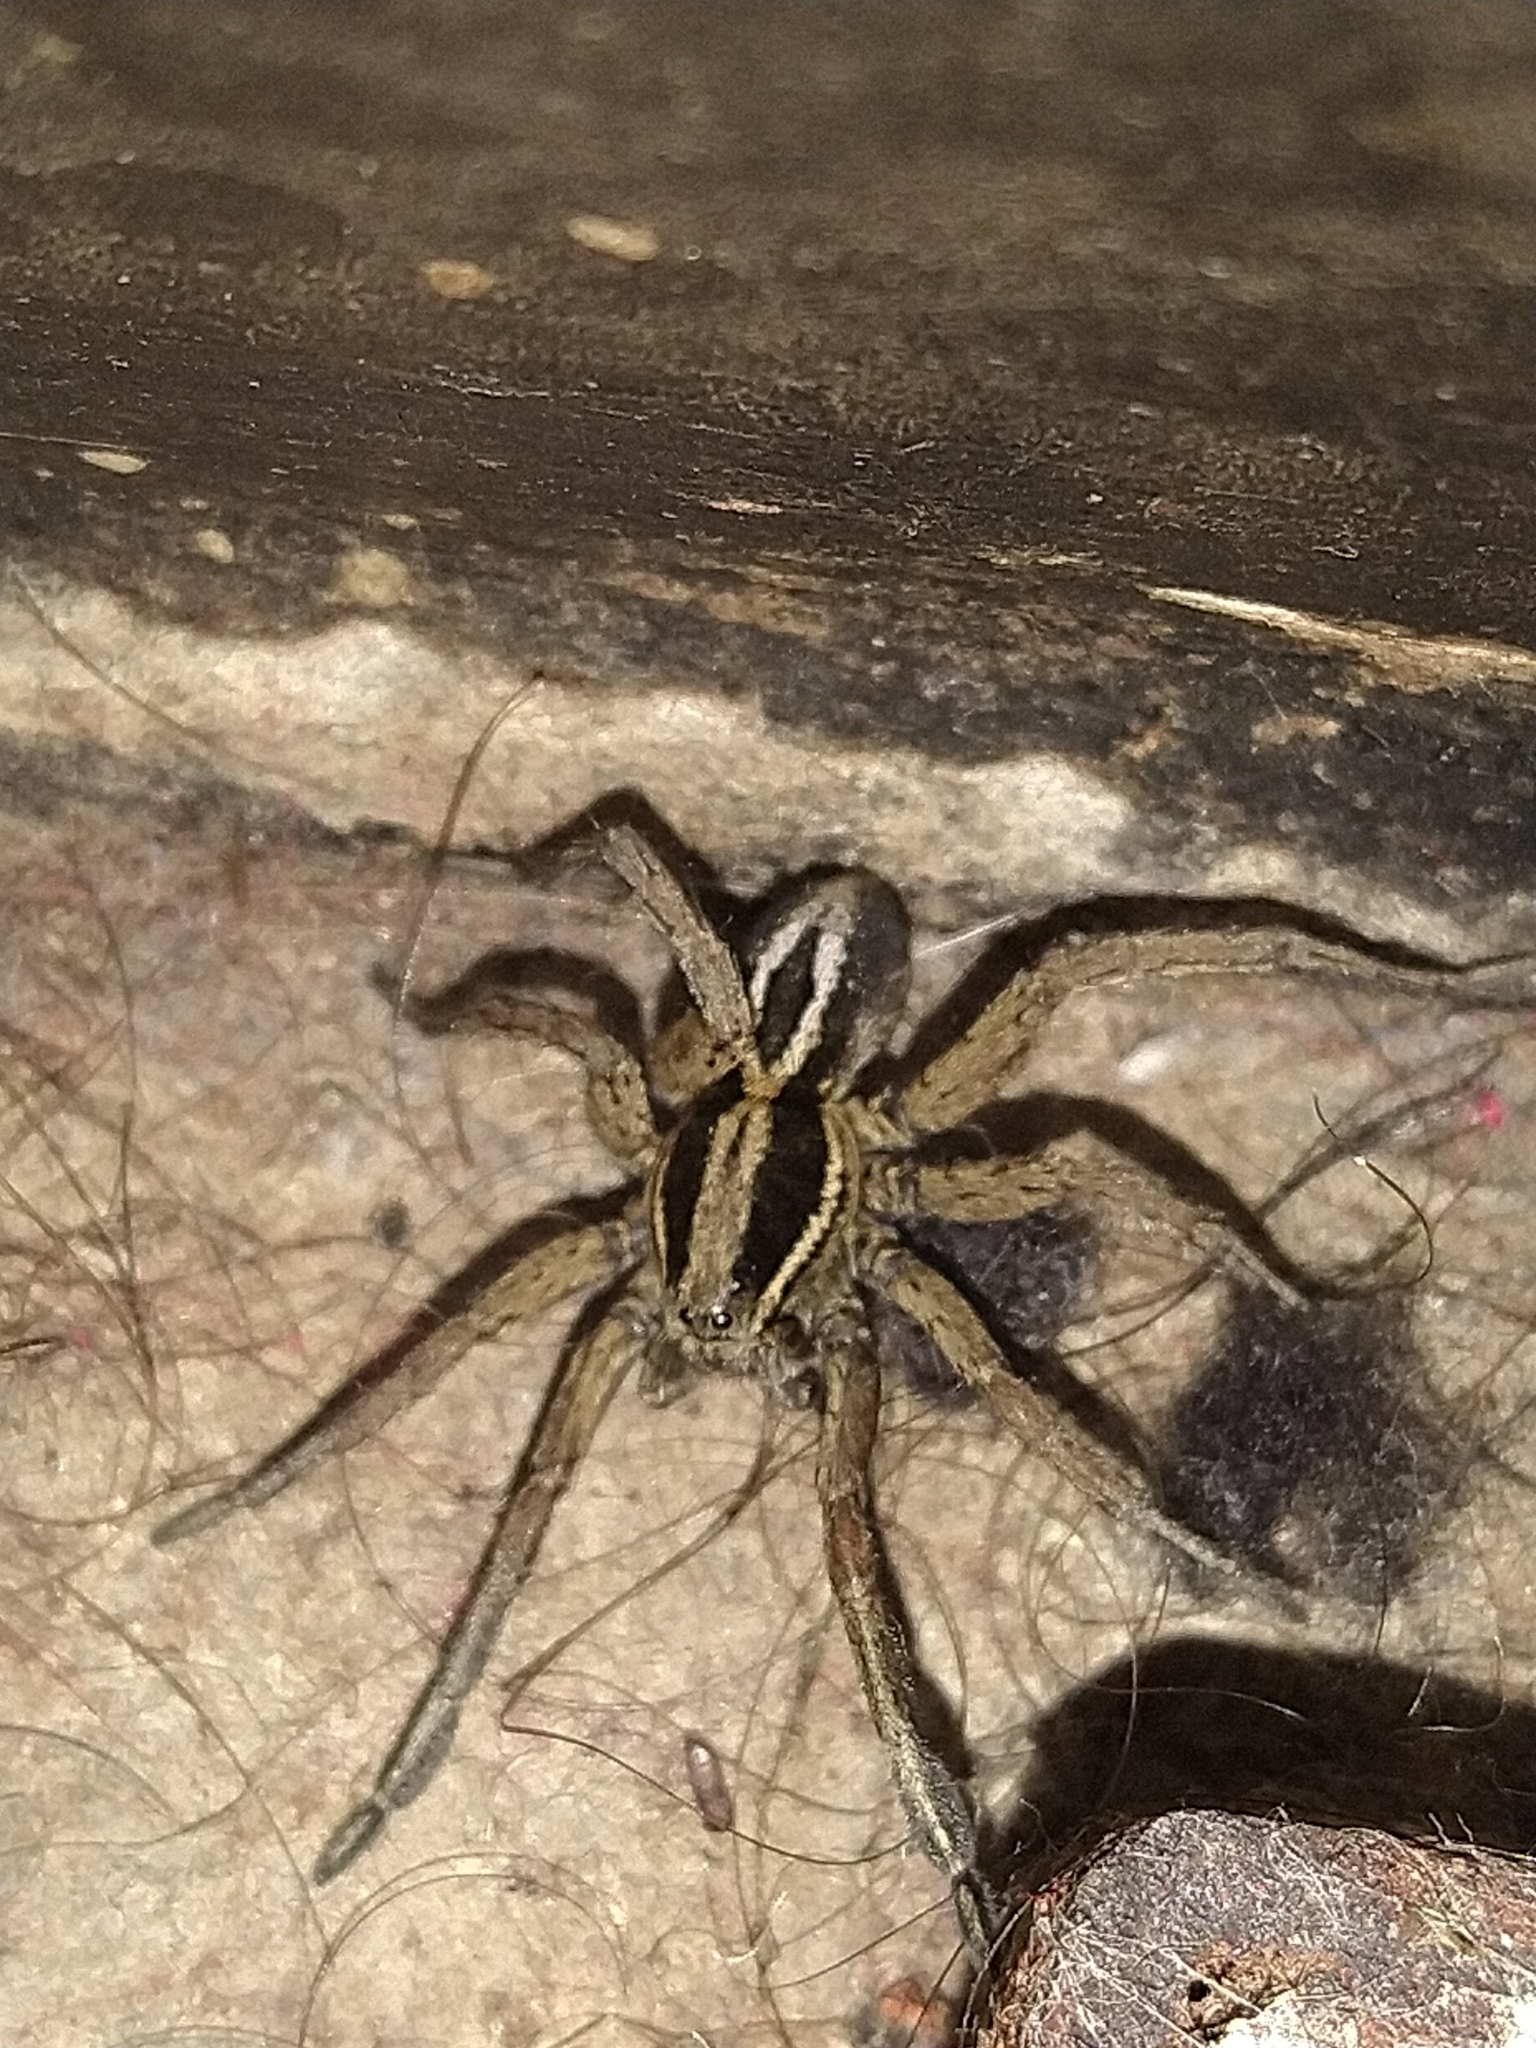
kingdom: Animalia
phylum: Arthropoda
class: Arachnida
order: Araneae
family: Lycosidae
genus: Alopecosa
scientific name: Alopecosa nigricans
